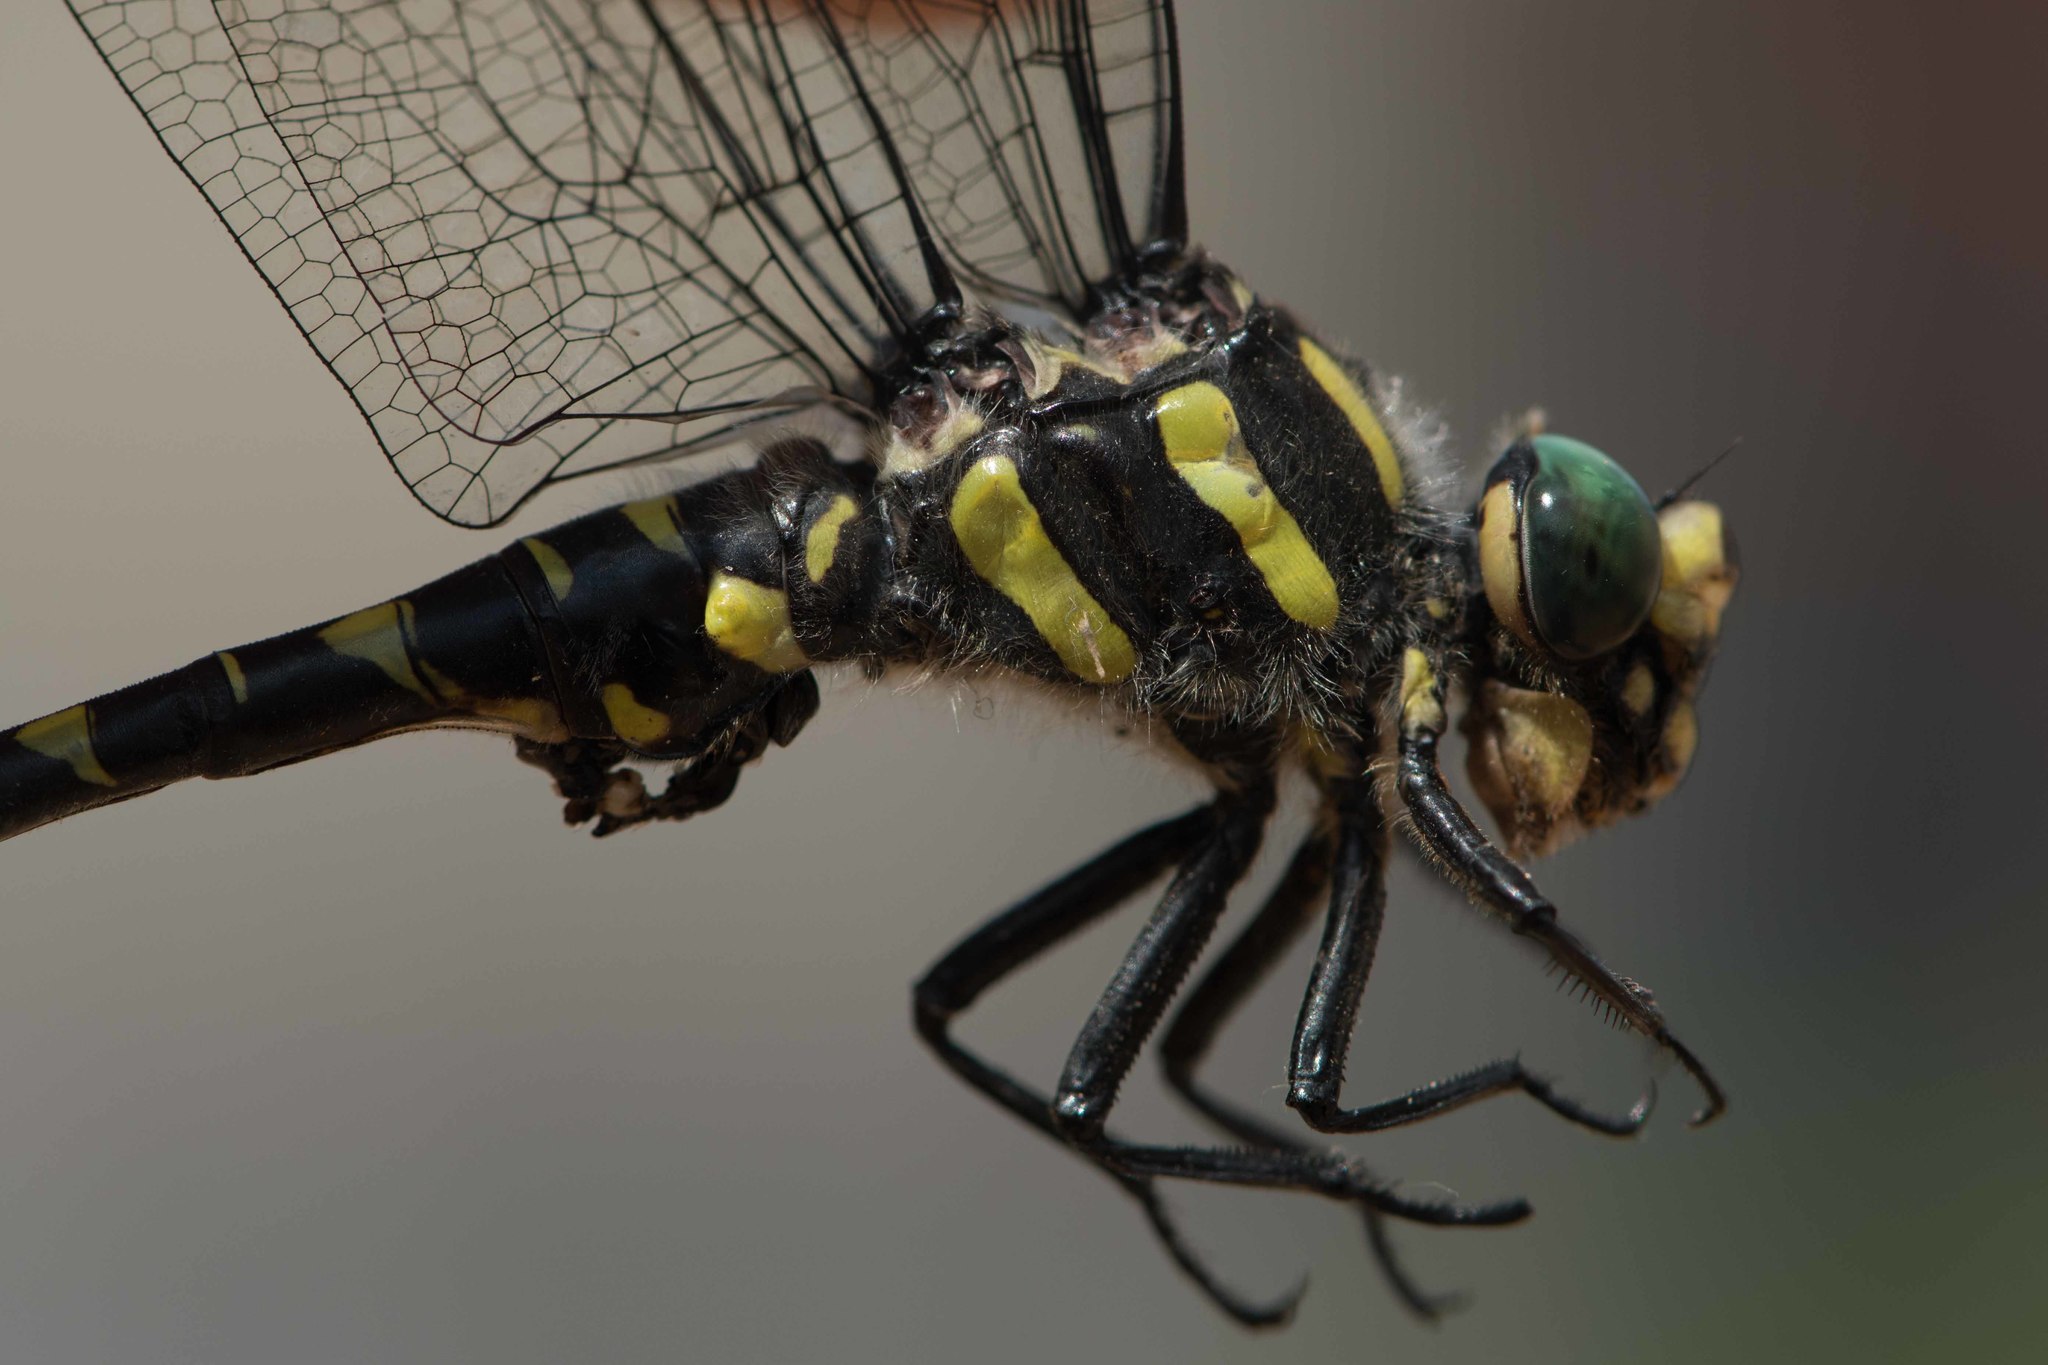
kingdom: Animalia
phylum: Arthropoda
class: Insecta
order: Odonata
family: Cordulegastridae
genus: Cordulegaster
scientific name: Cordulegaster bidentata
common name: Sombre goldenring
